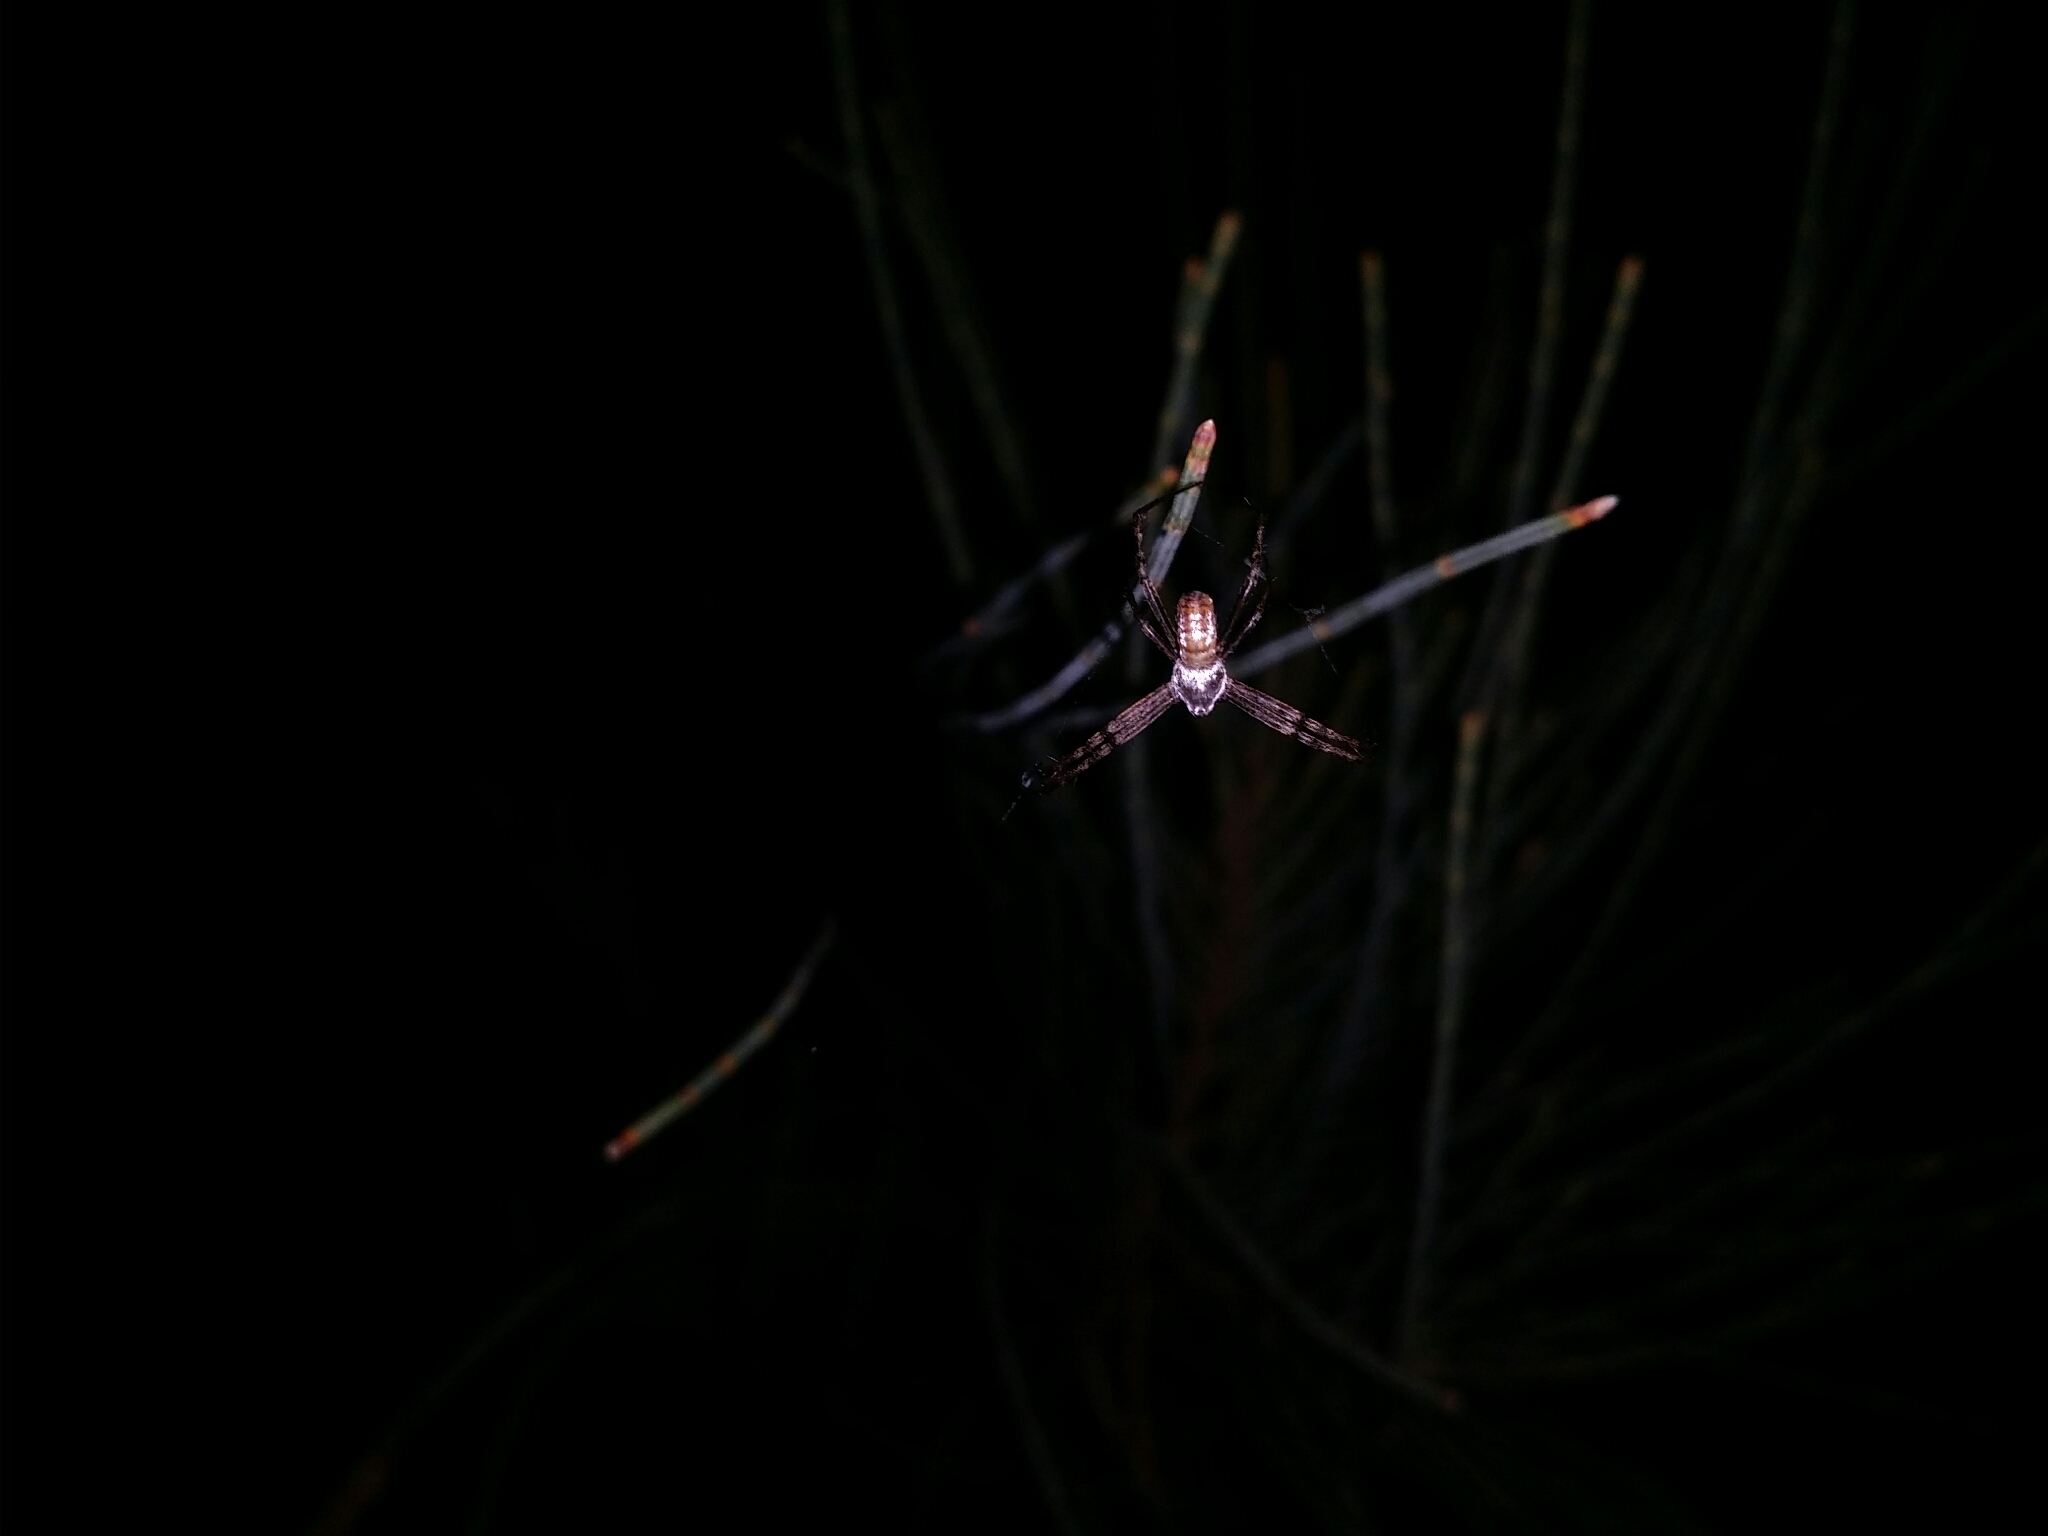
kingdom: Animalia
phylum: Arthropoda
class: Arachnida
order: Araneae
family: Araneidae
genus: Argiope
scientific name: Argiope trifasciata
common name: Banded garden spider
